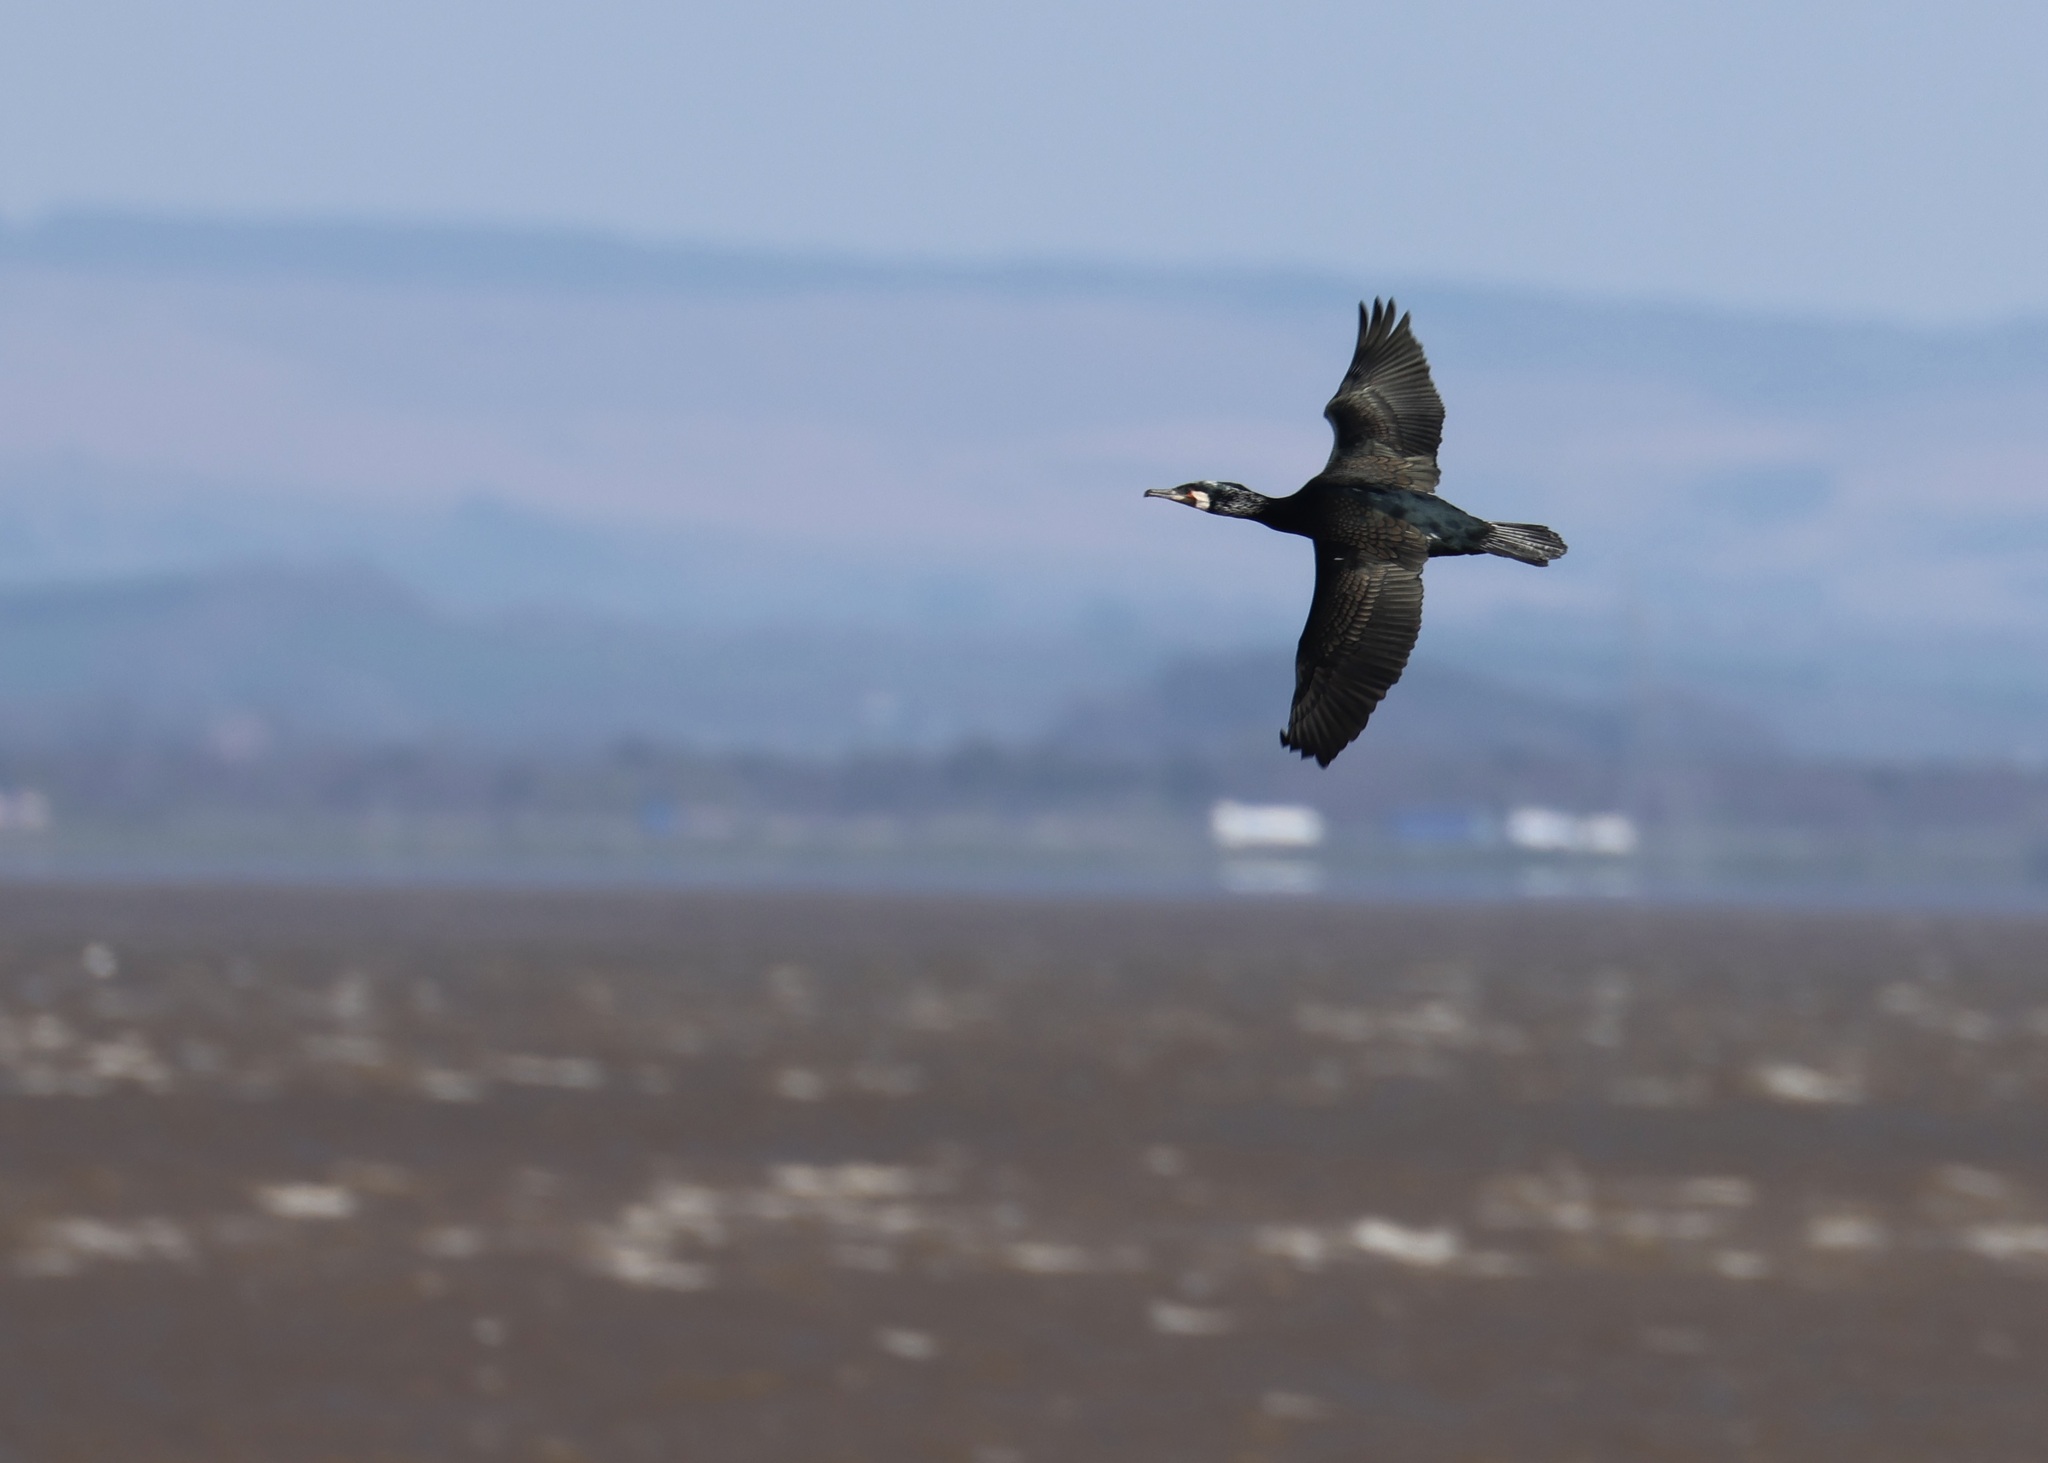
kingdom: Animalia
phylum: Chordata
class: Aves
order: Suliformes
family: Phalacrocoracidae
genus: Phalacrocorax
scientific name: Phalacrocorax carbo
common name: Great cormorant
